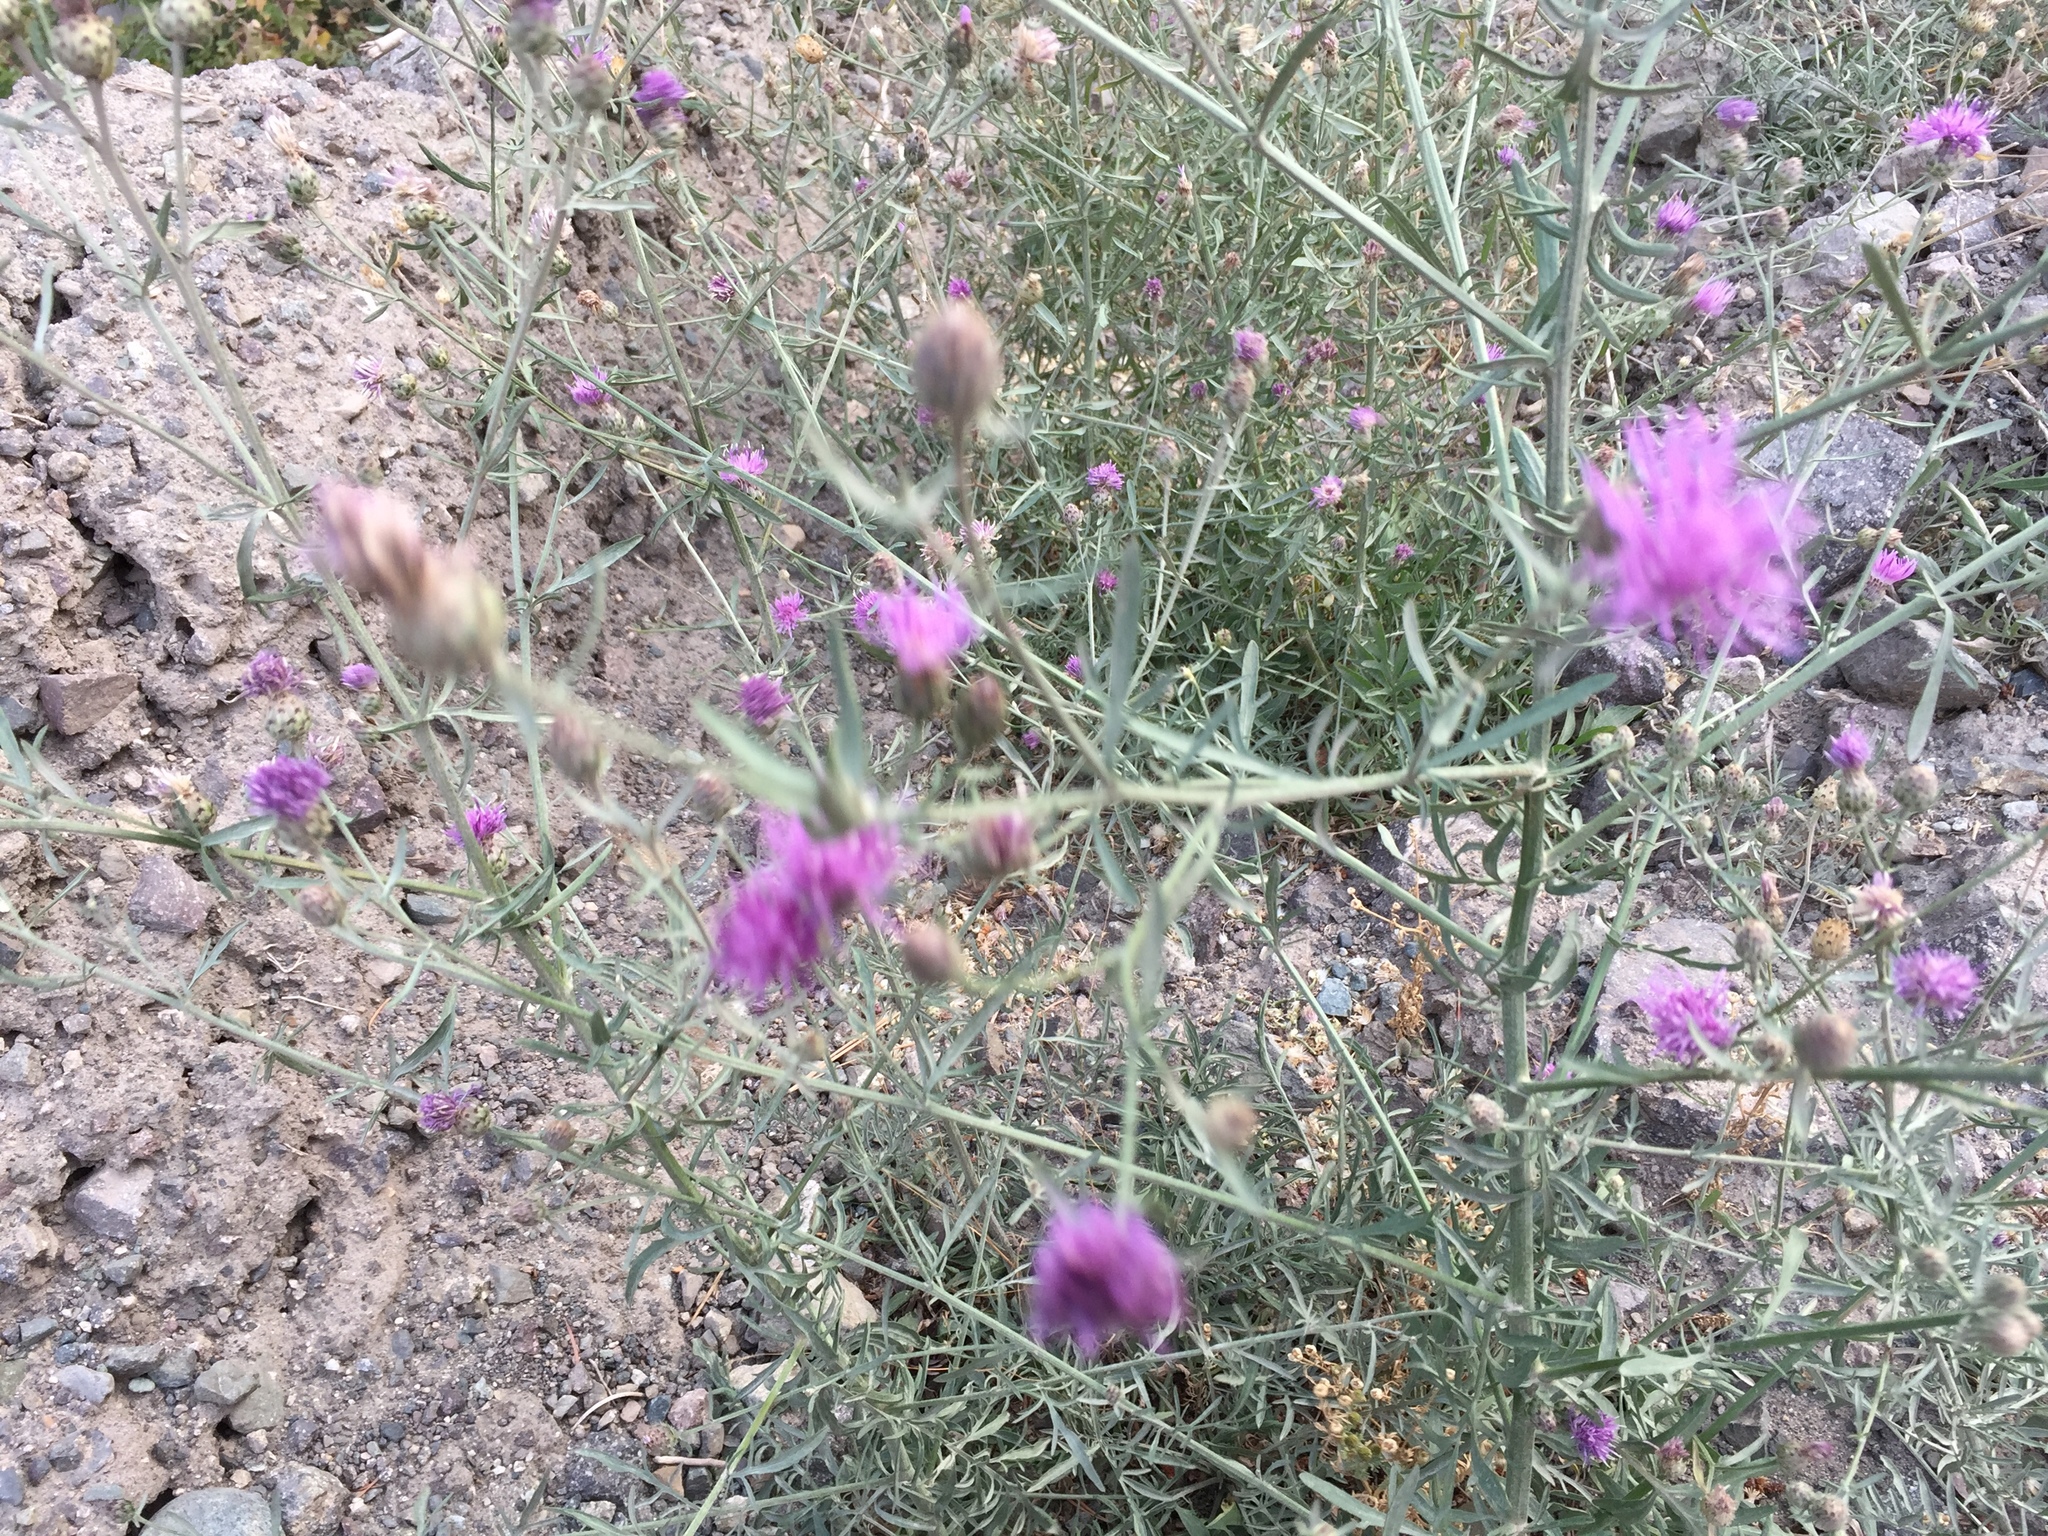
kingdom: Plantae
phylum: Tracheophyta
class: Magnoliopsida
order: Asterales
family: Asteraceae
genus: Centaurea
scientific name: Centaurea stoebe
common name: Spotted knapweed
